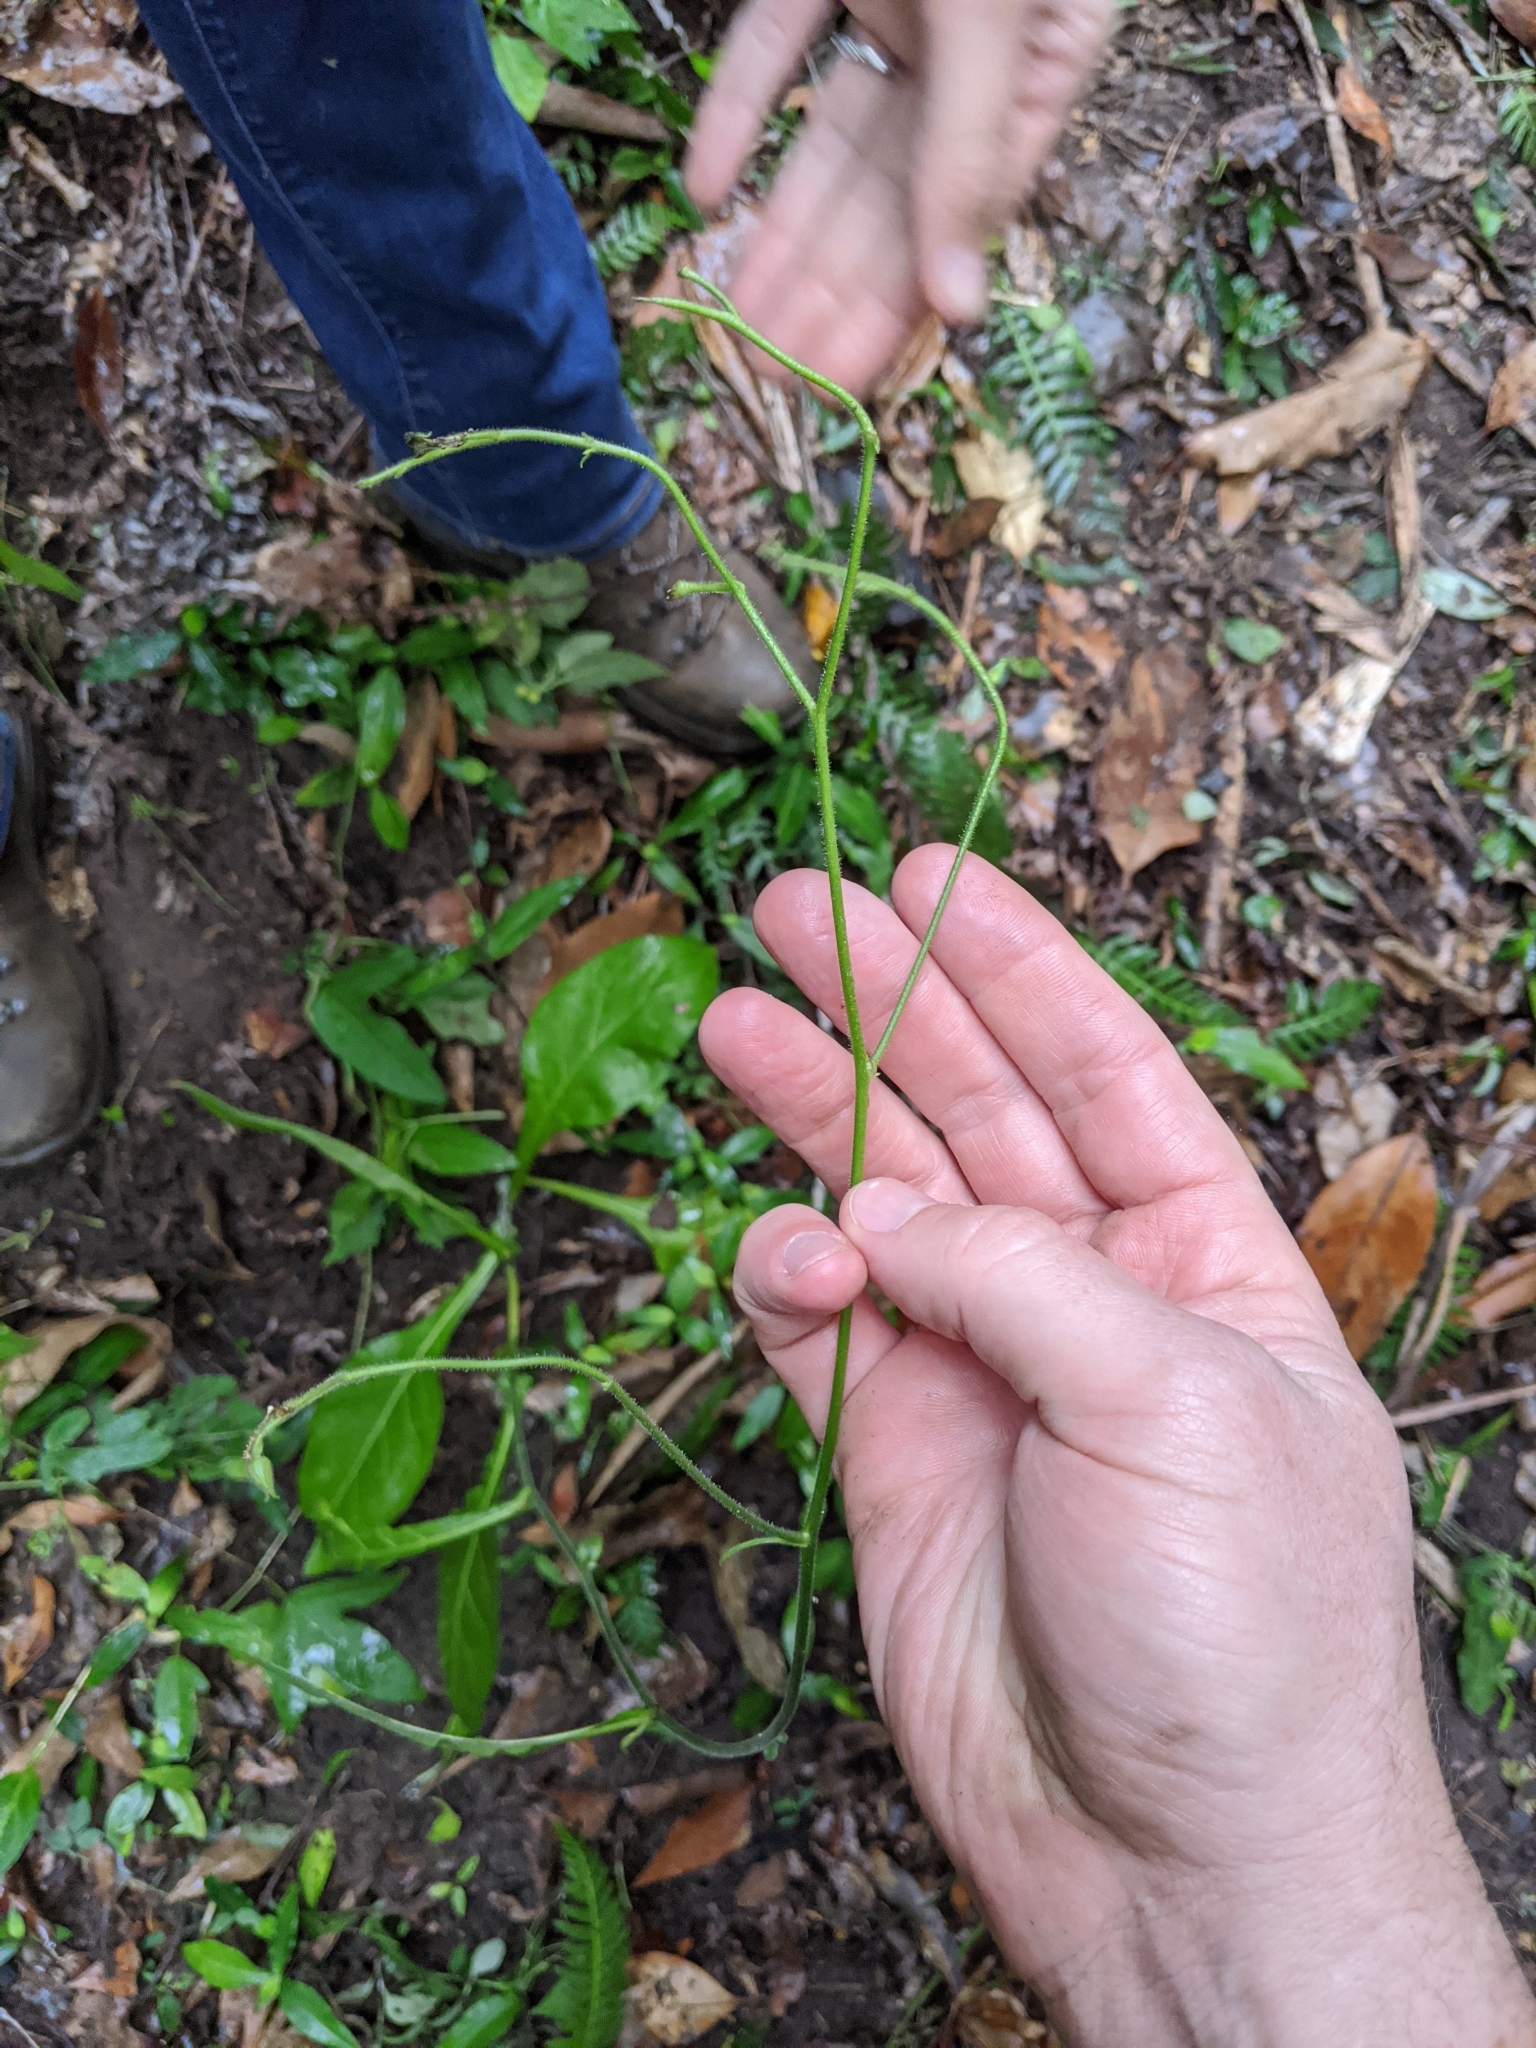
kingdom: Plantae
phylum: Tracheophyta
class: Magnoliopsida
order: Solanales
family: Solanaceae
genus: Nicotiana
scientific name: Nicotiana forsteri
